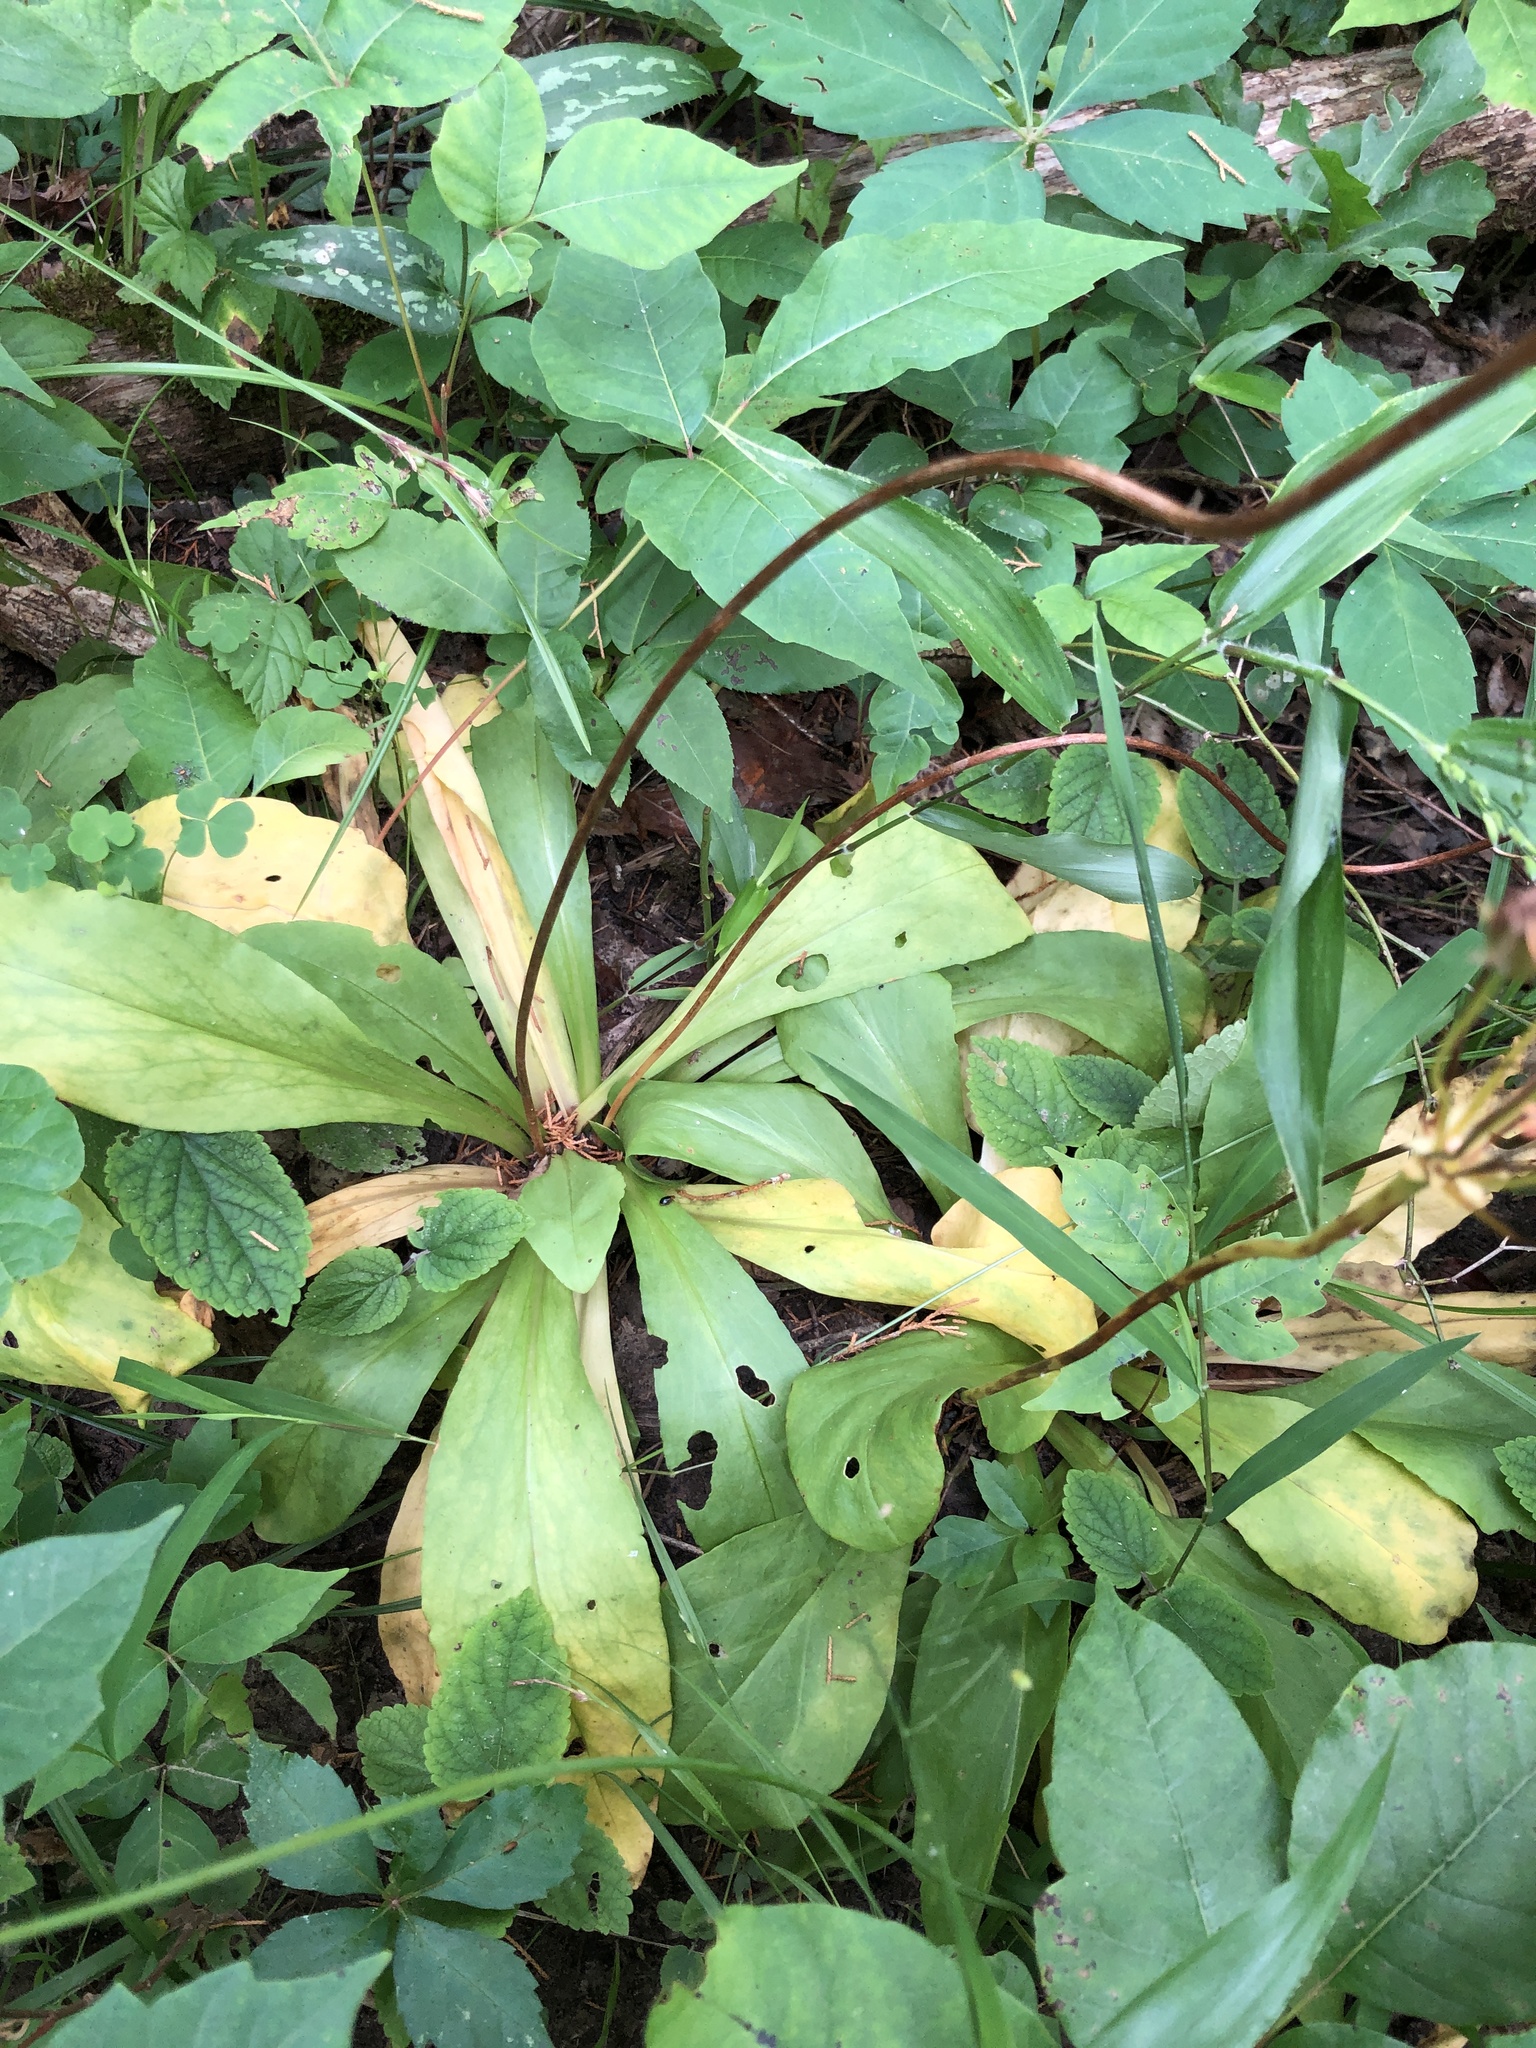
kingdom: Plantae
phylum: Tracheophyta
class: Magnoliopsida
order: Ericales
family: Primulaceae
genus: Dodecatheon
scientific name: Dodecatheon meadia
